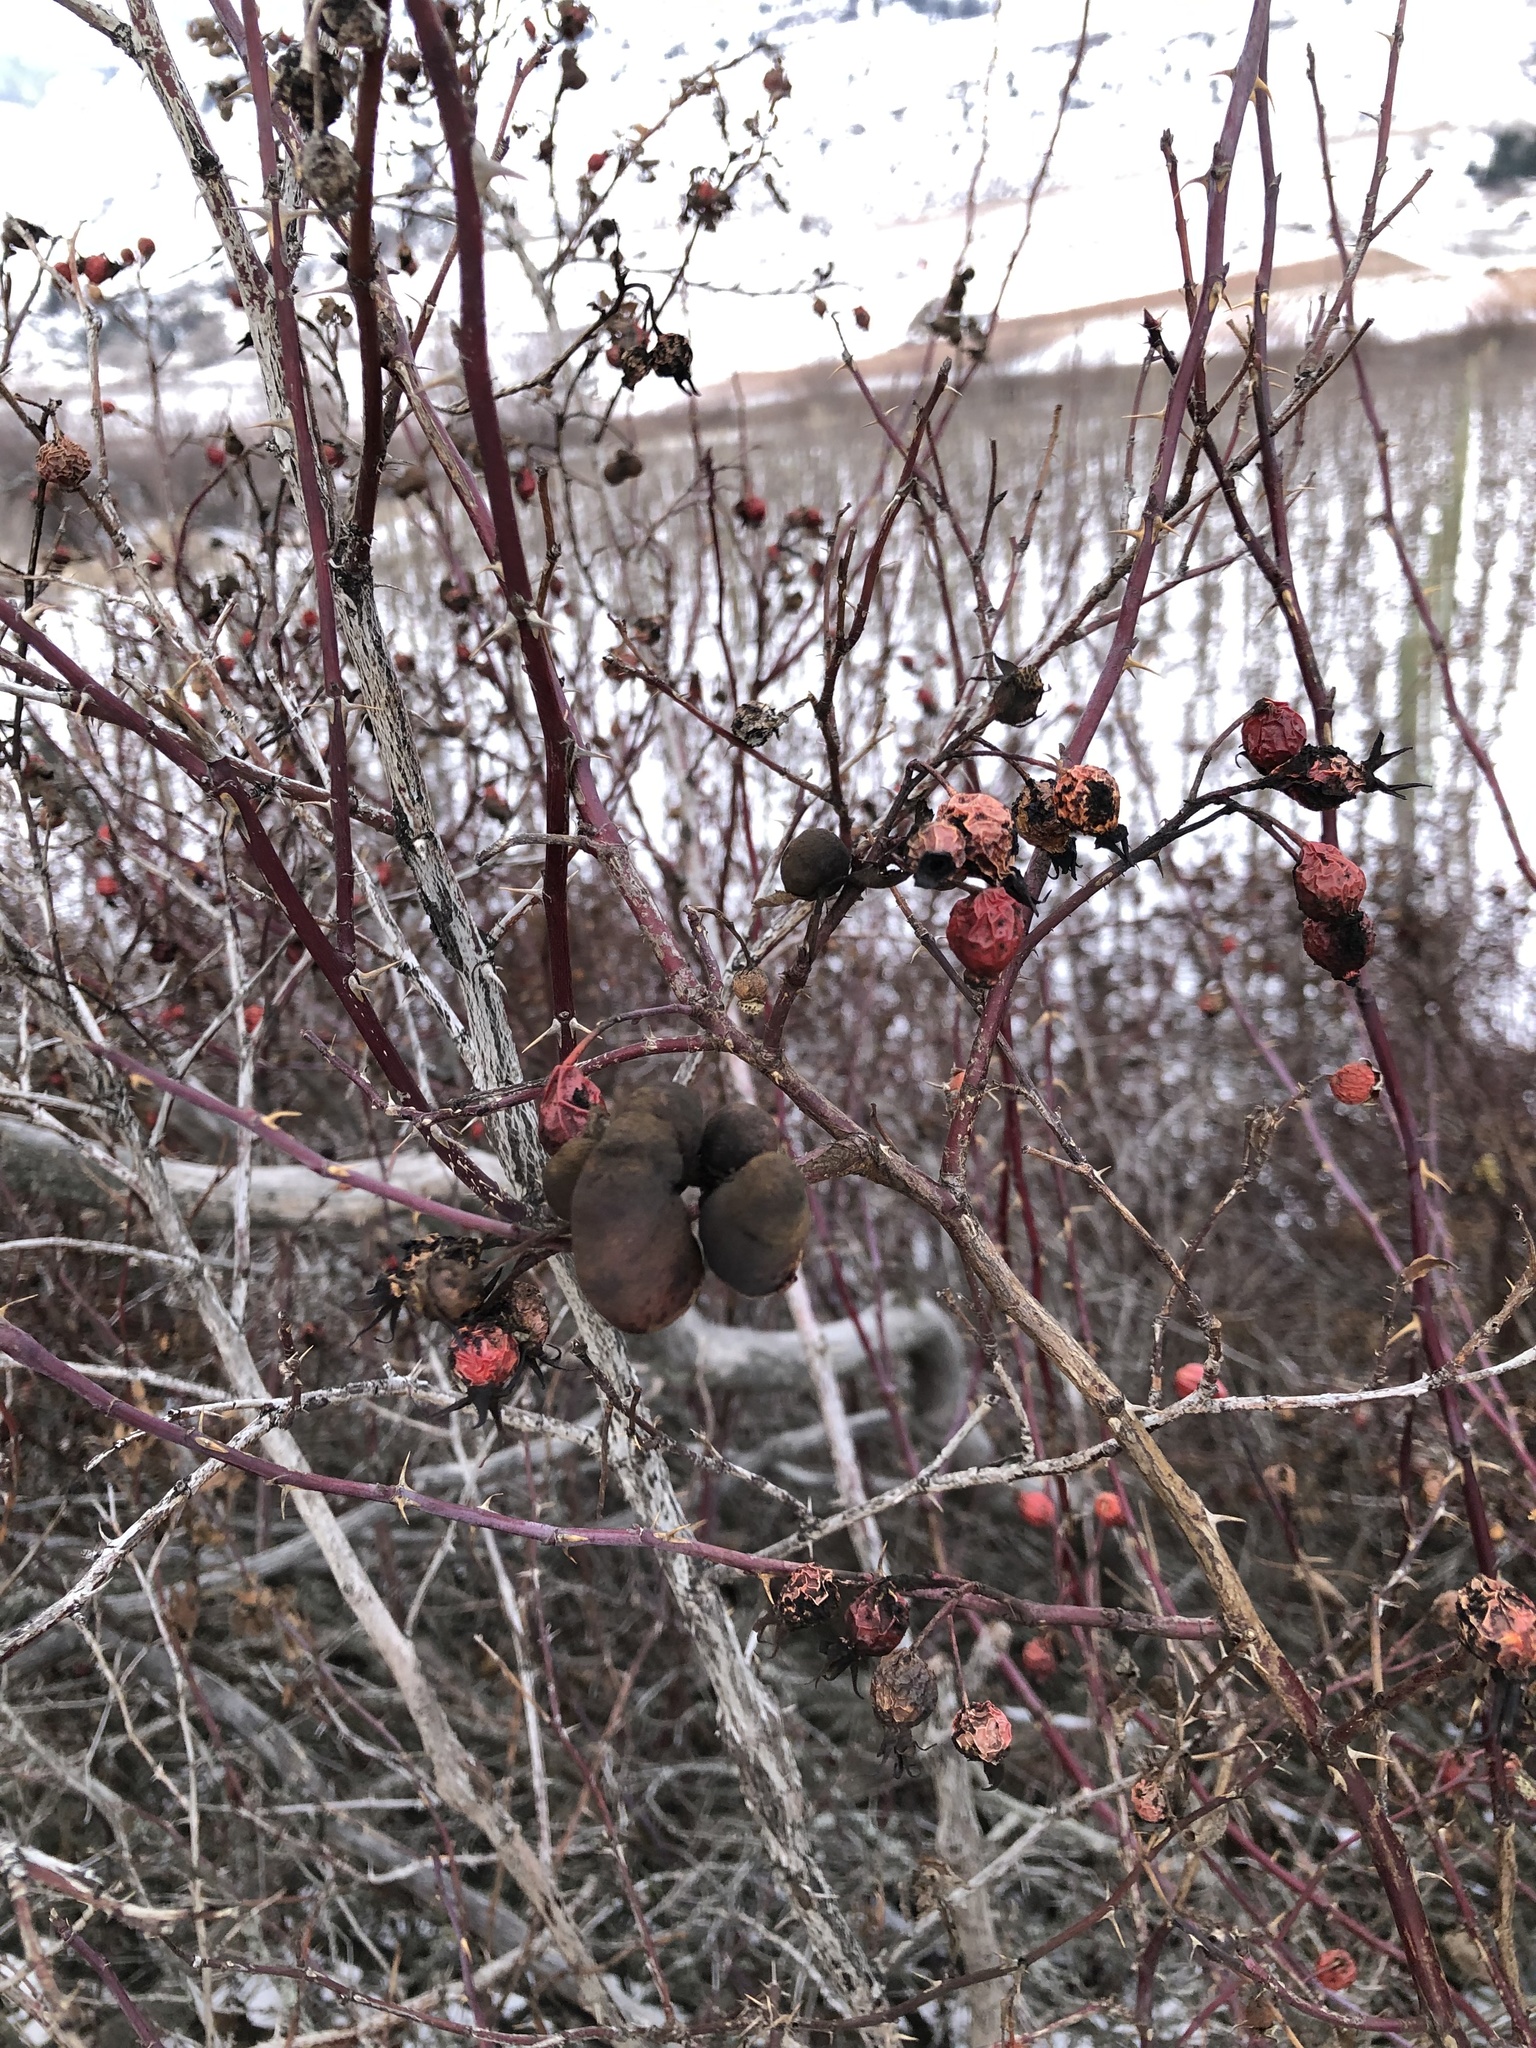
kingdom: Animalia
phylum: Arthropoda
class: Insecta
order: Hymenoptera
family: Cynipidae
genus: Diplolepis
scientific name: Diplolepis variabilis
